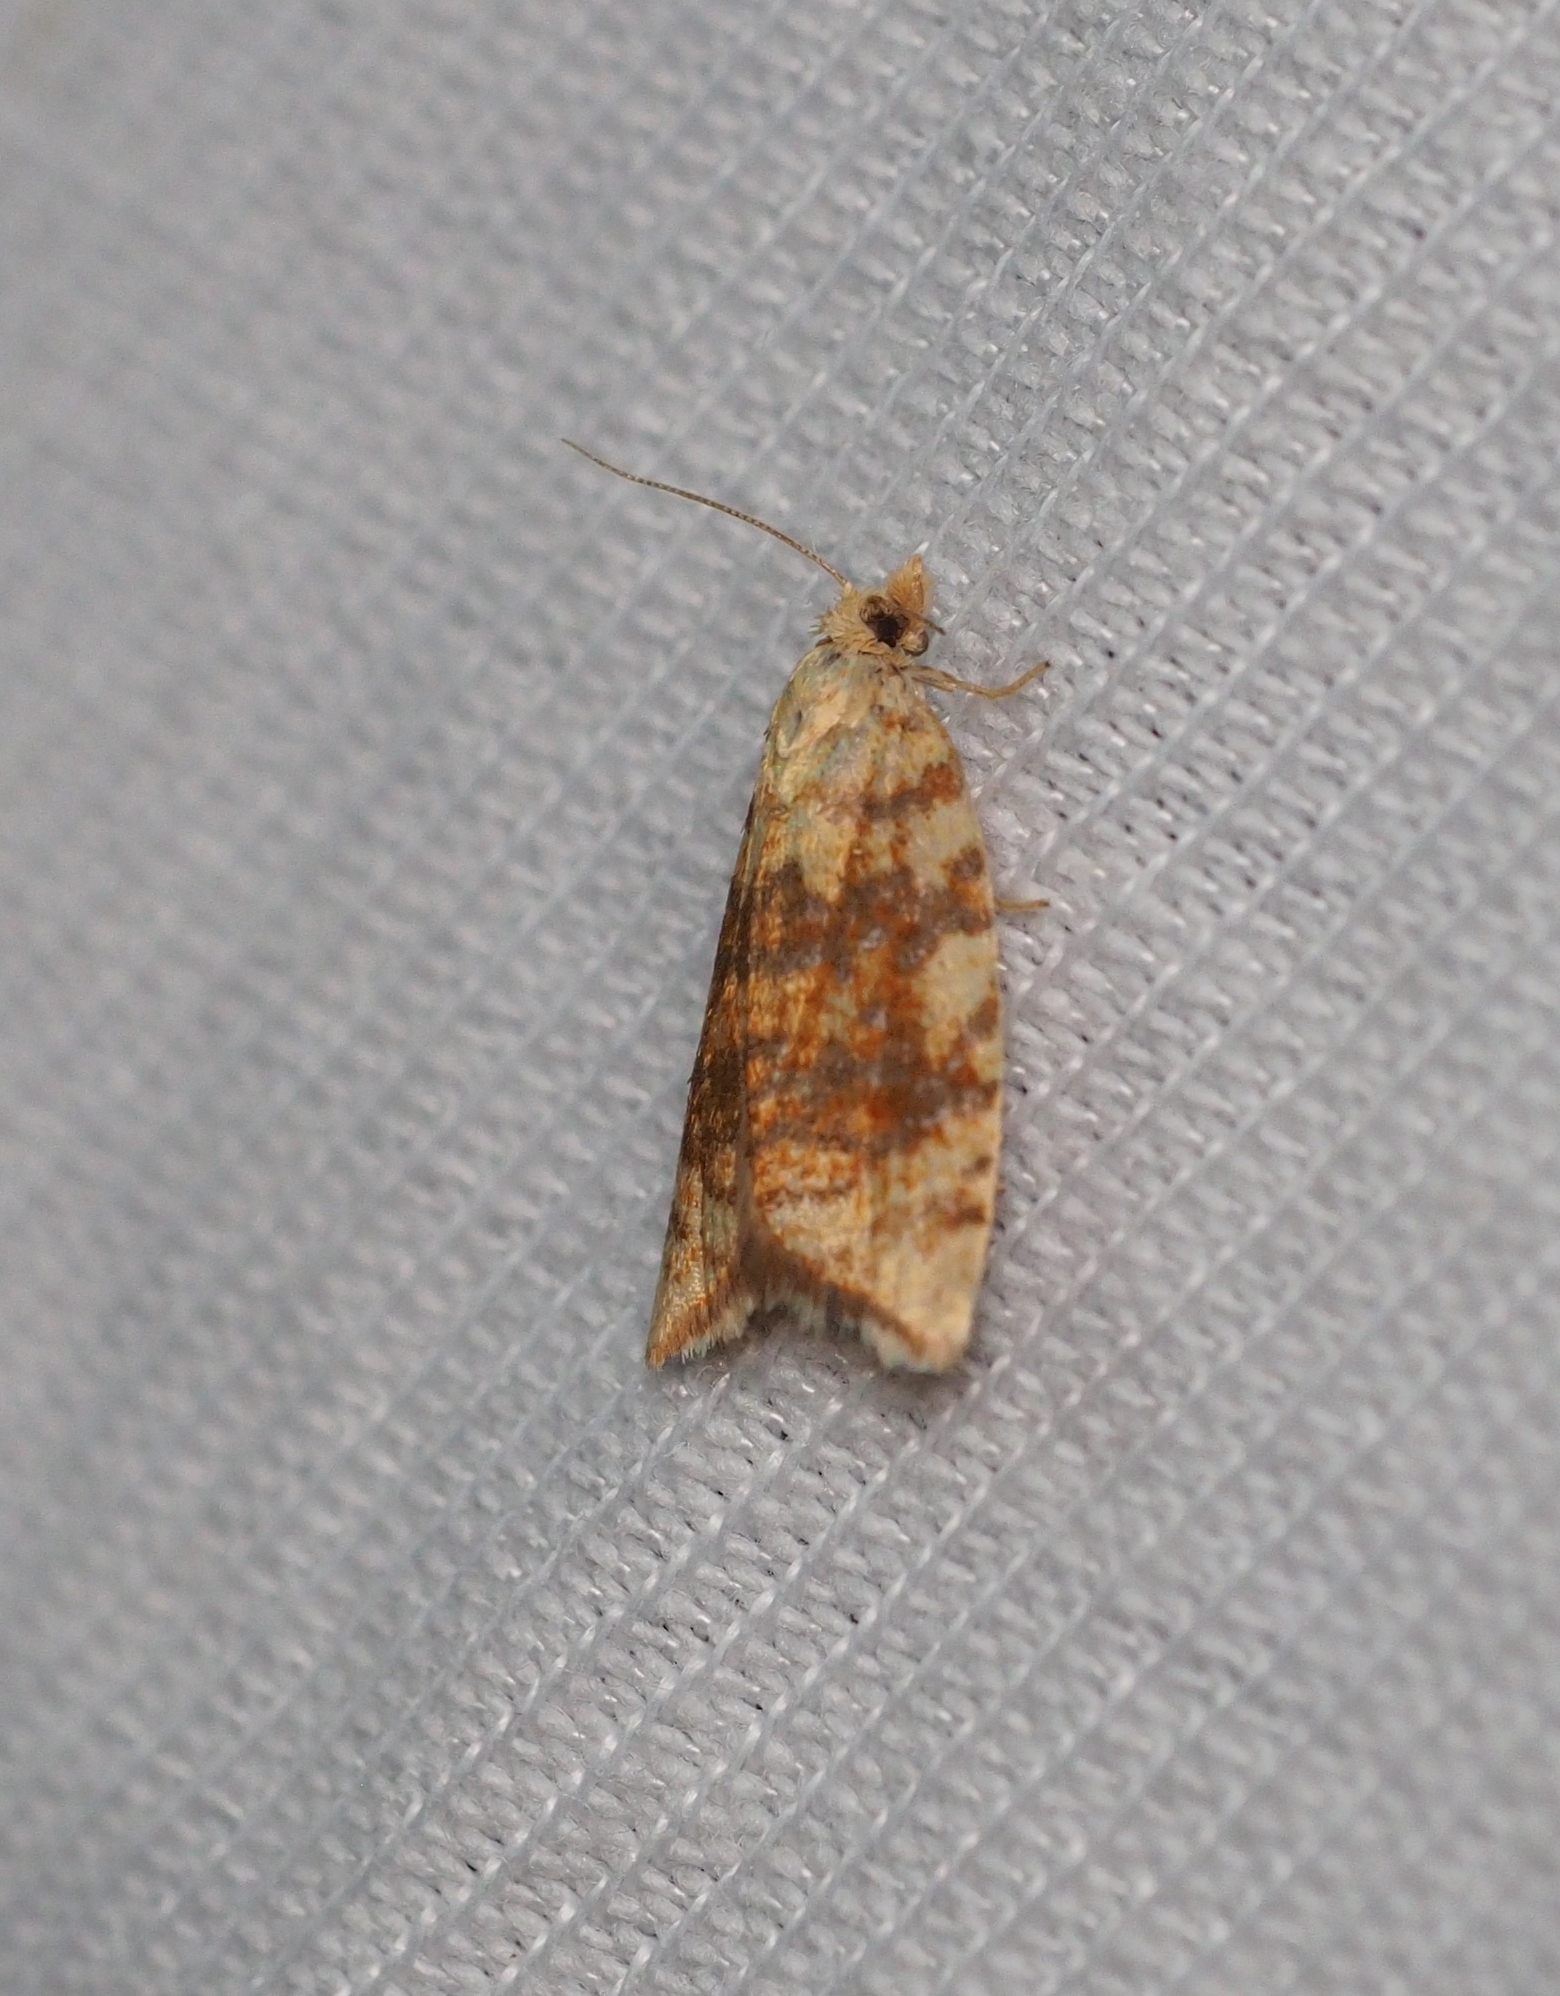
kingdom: Animalia
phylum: Arthropoda
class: Insecta
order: Lepidoptera
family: Tortricidae
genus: Aleimma
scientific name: Aleimma loeflingiana
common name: Yellow oak button
